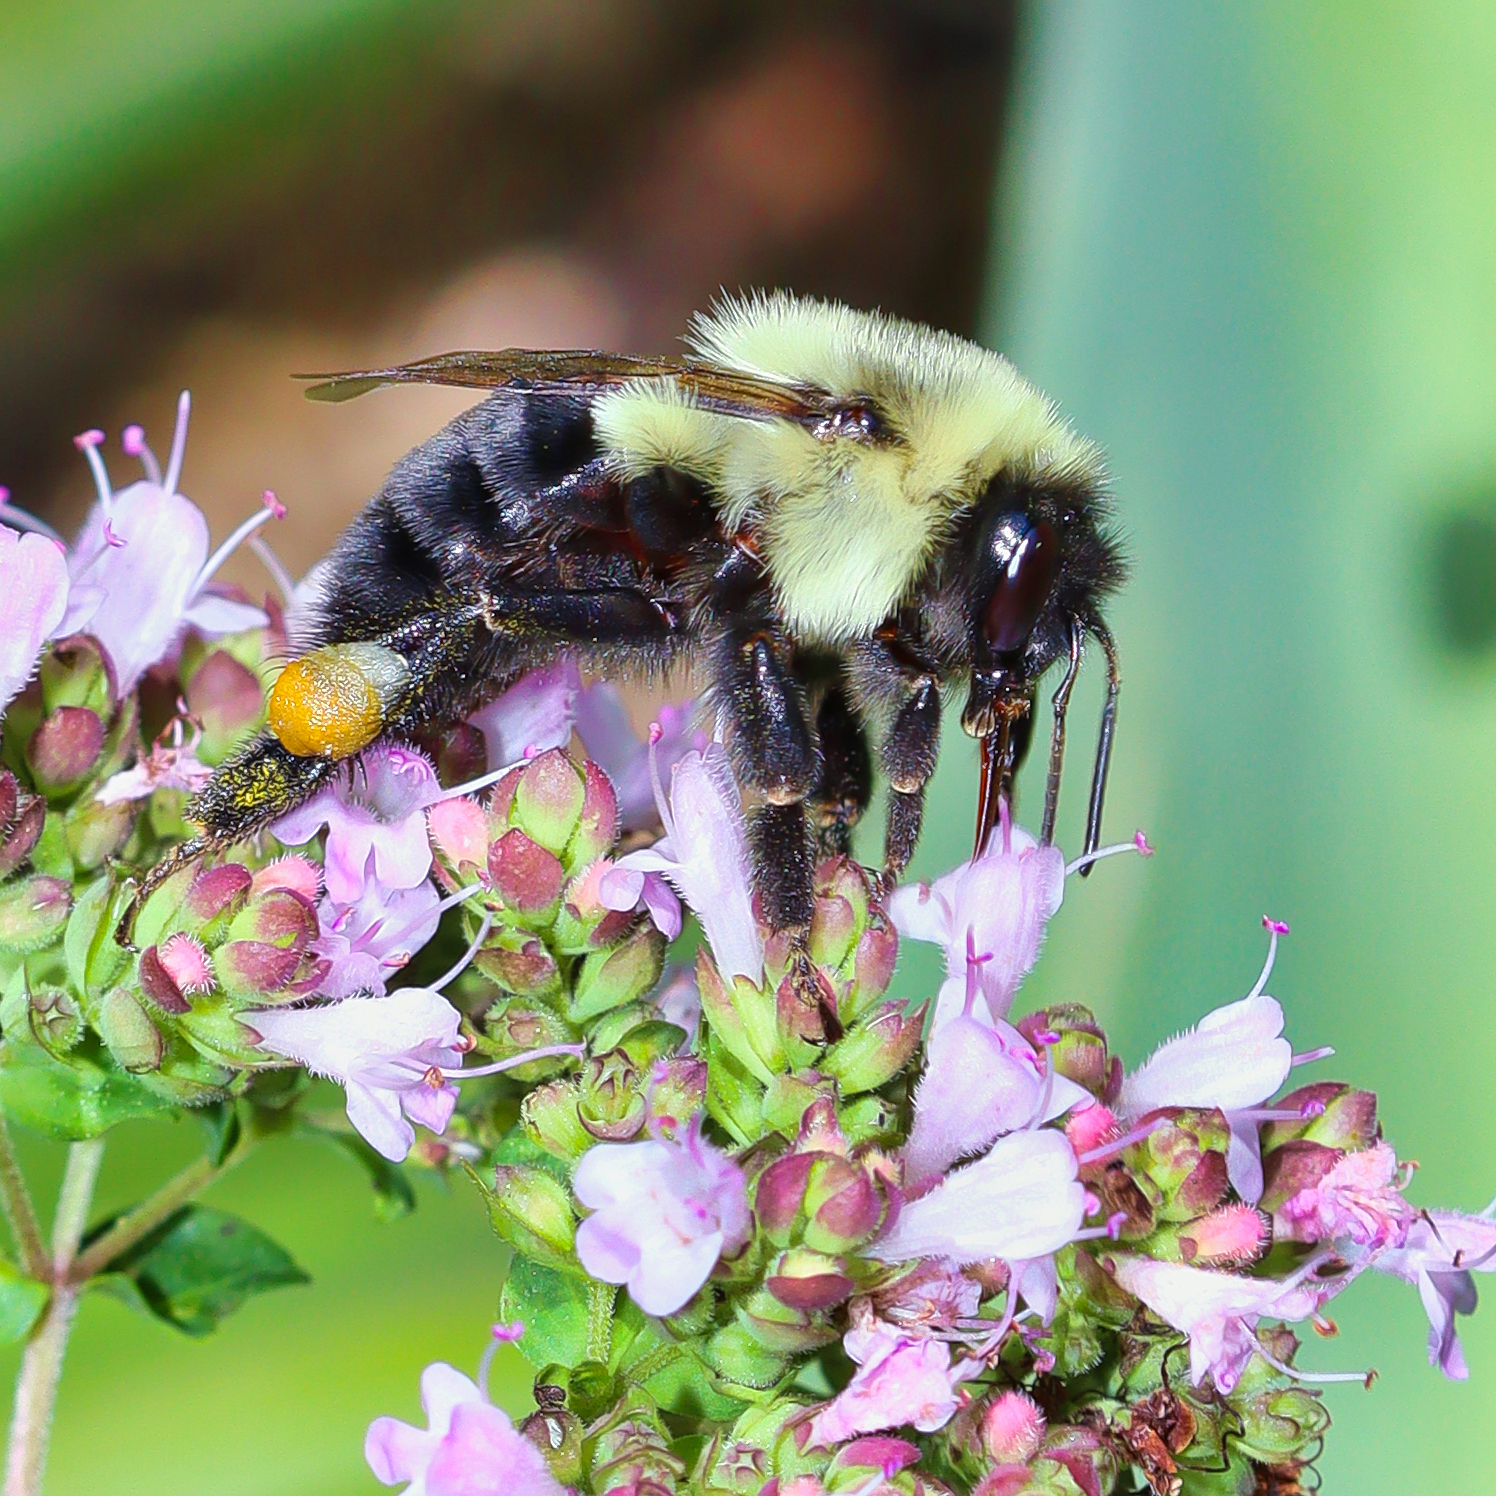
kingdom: Animalia
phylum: Arthropoda
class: Insecta
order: Hymenoptera
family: Apidae
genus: Bombus
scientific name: Bombus impatiens
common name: Common eastern bumble bee
